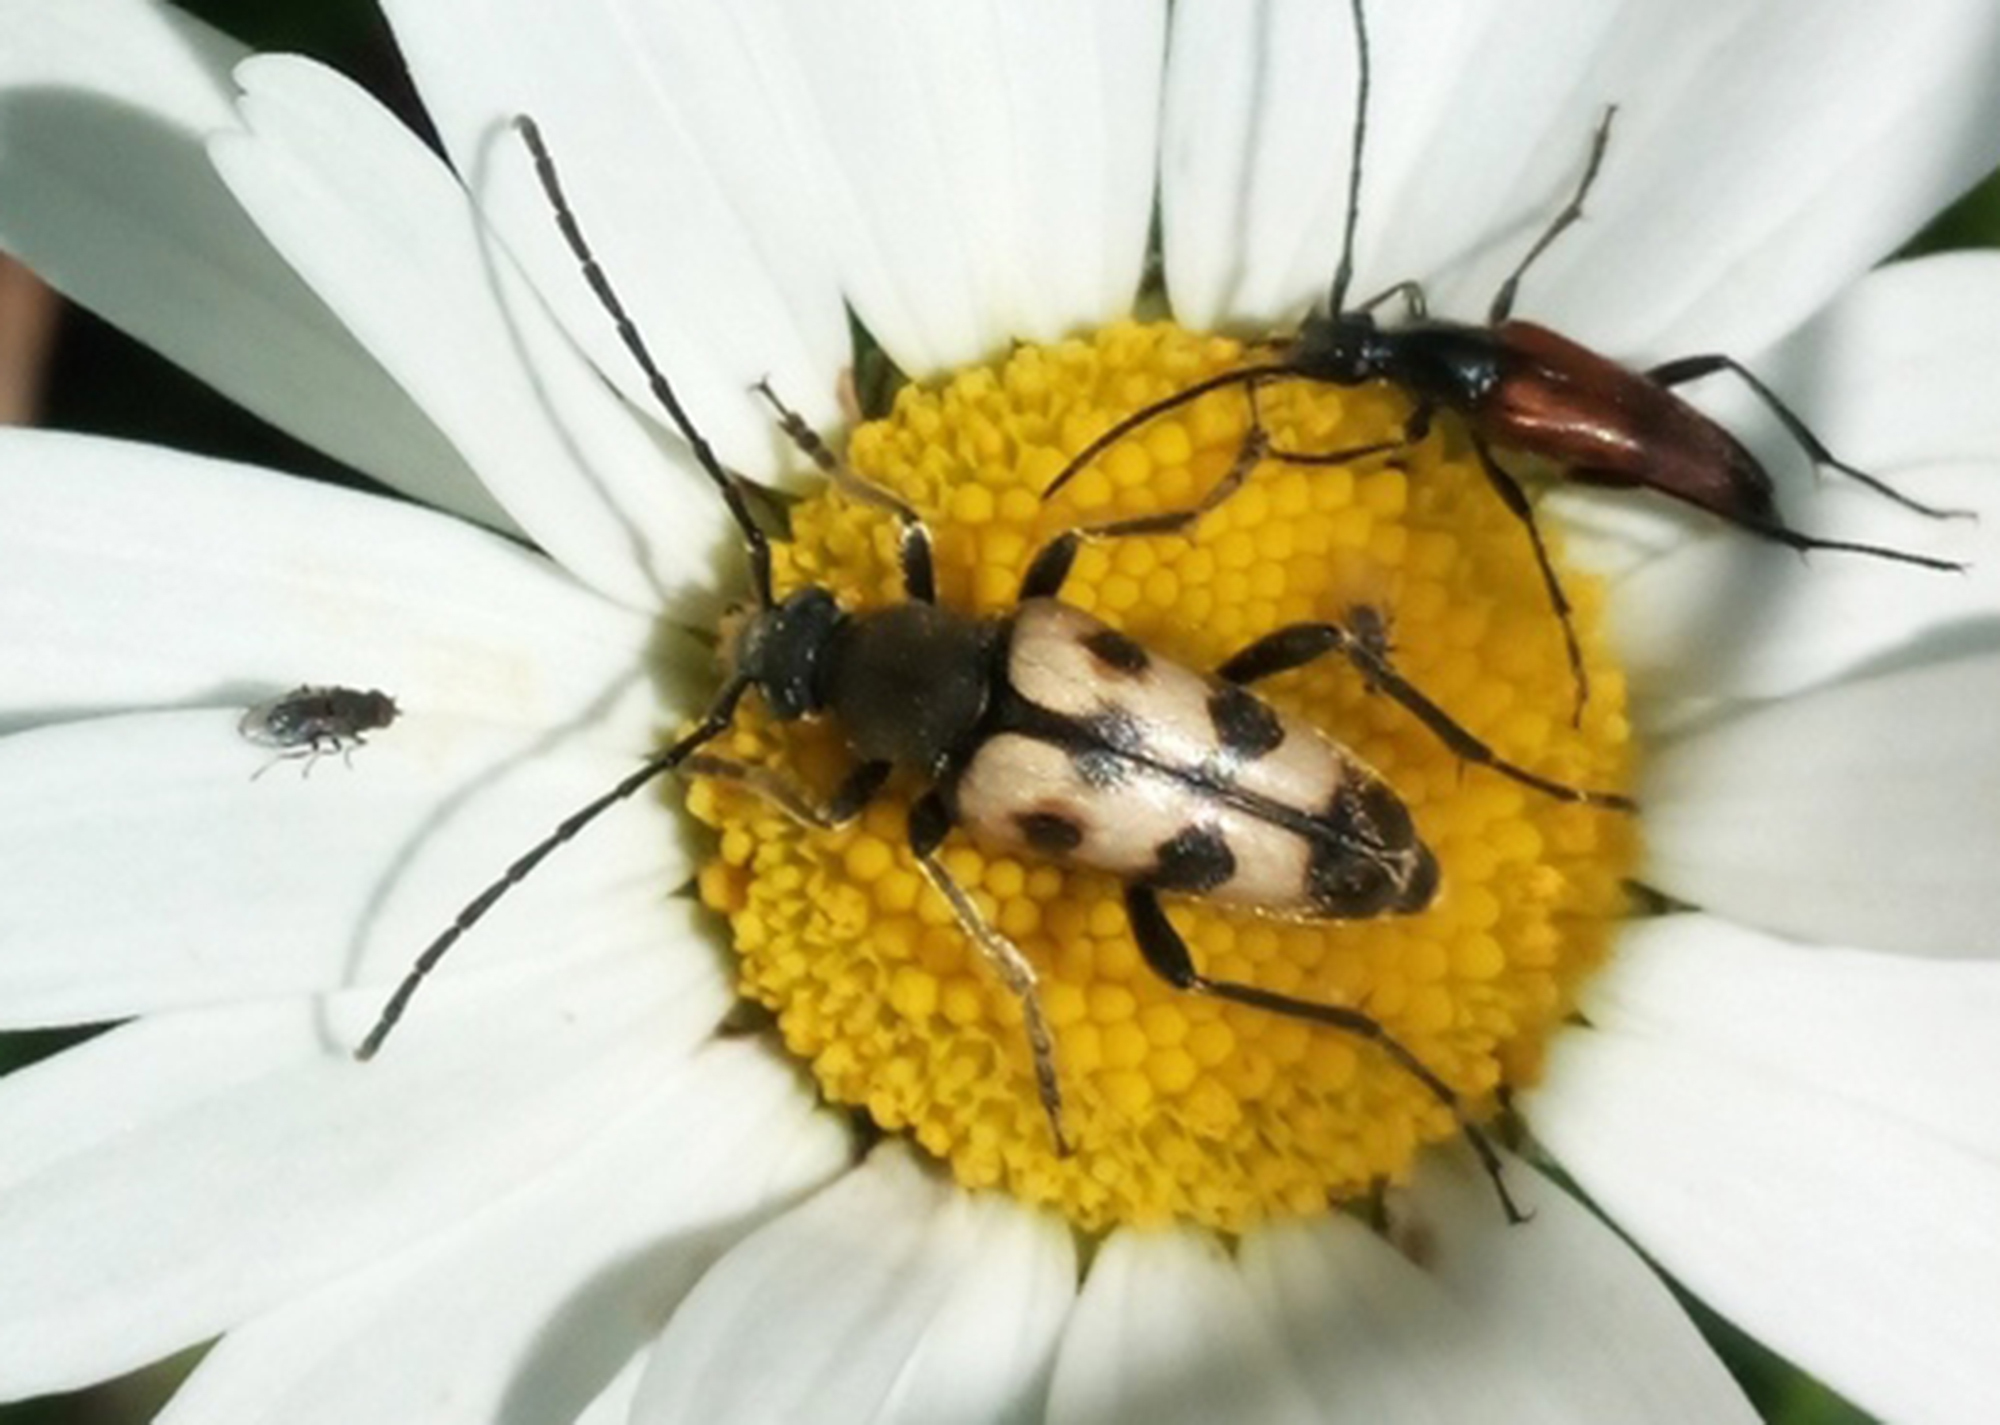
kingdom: Animalia
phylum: Arthropoda
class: Insecta
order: Coleoptera
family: Cerambycidae
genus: Pachytodes
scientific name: Pachytodes
